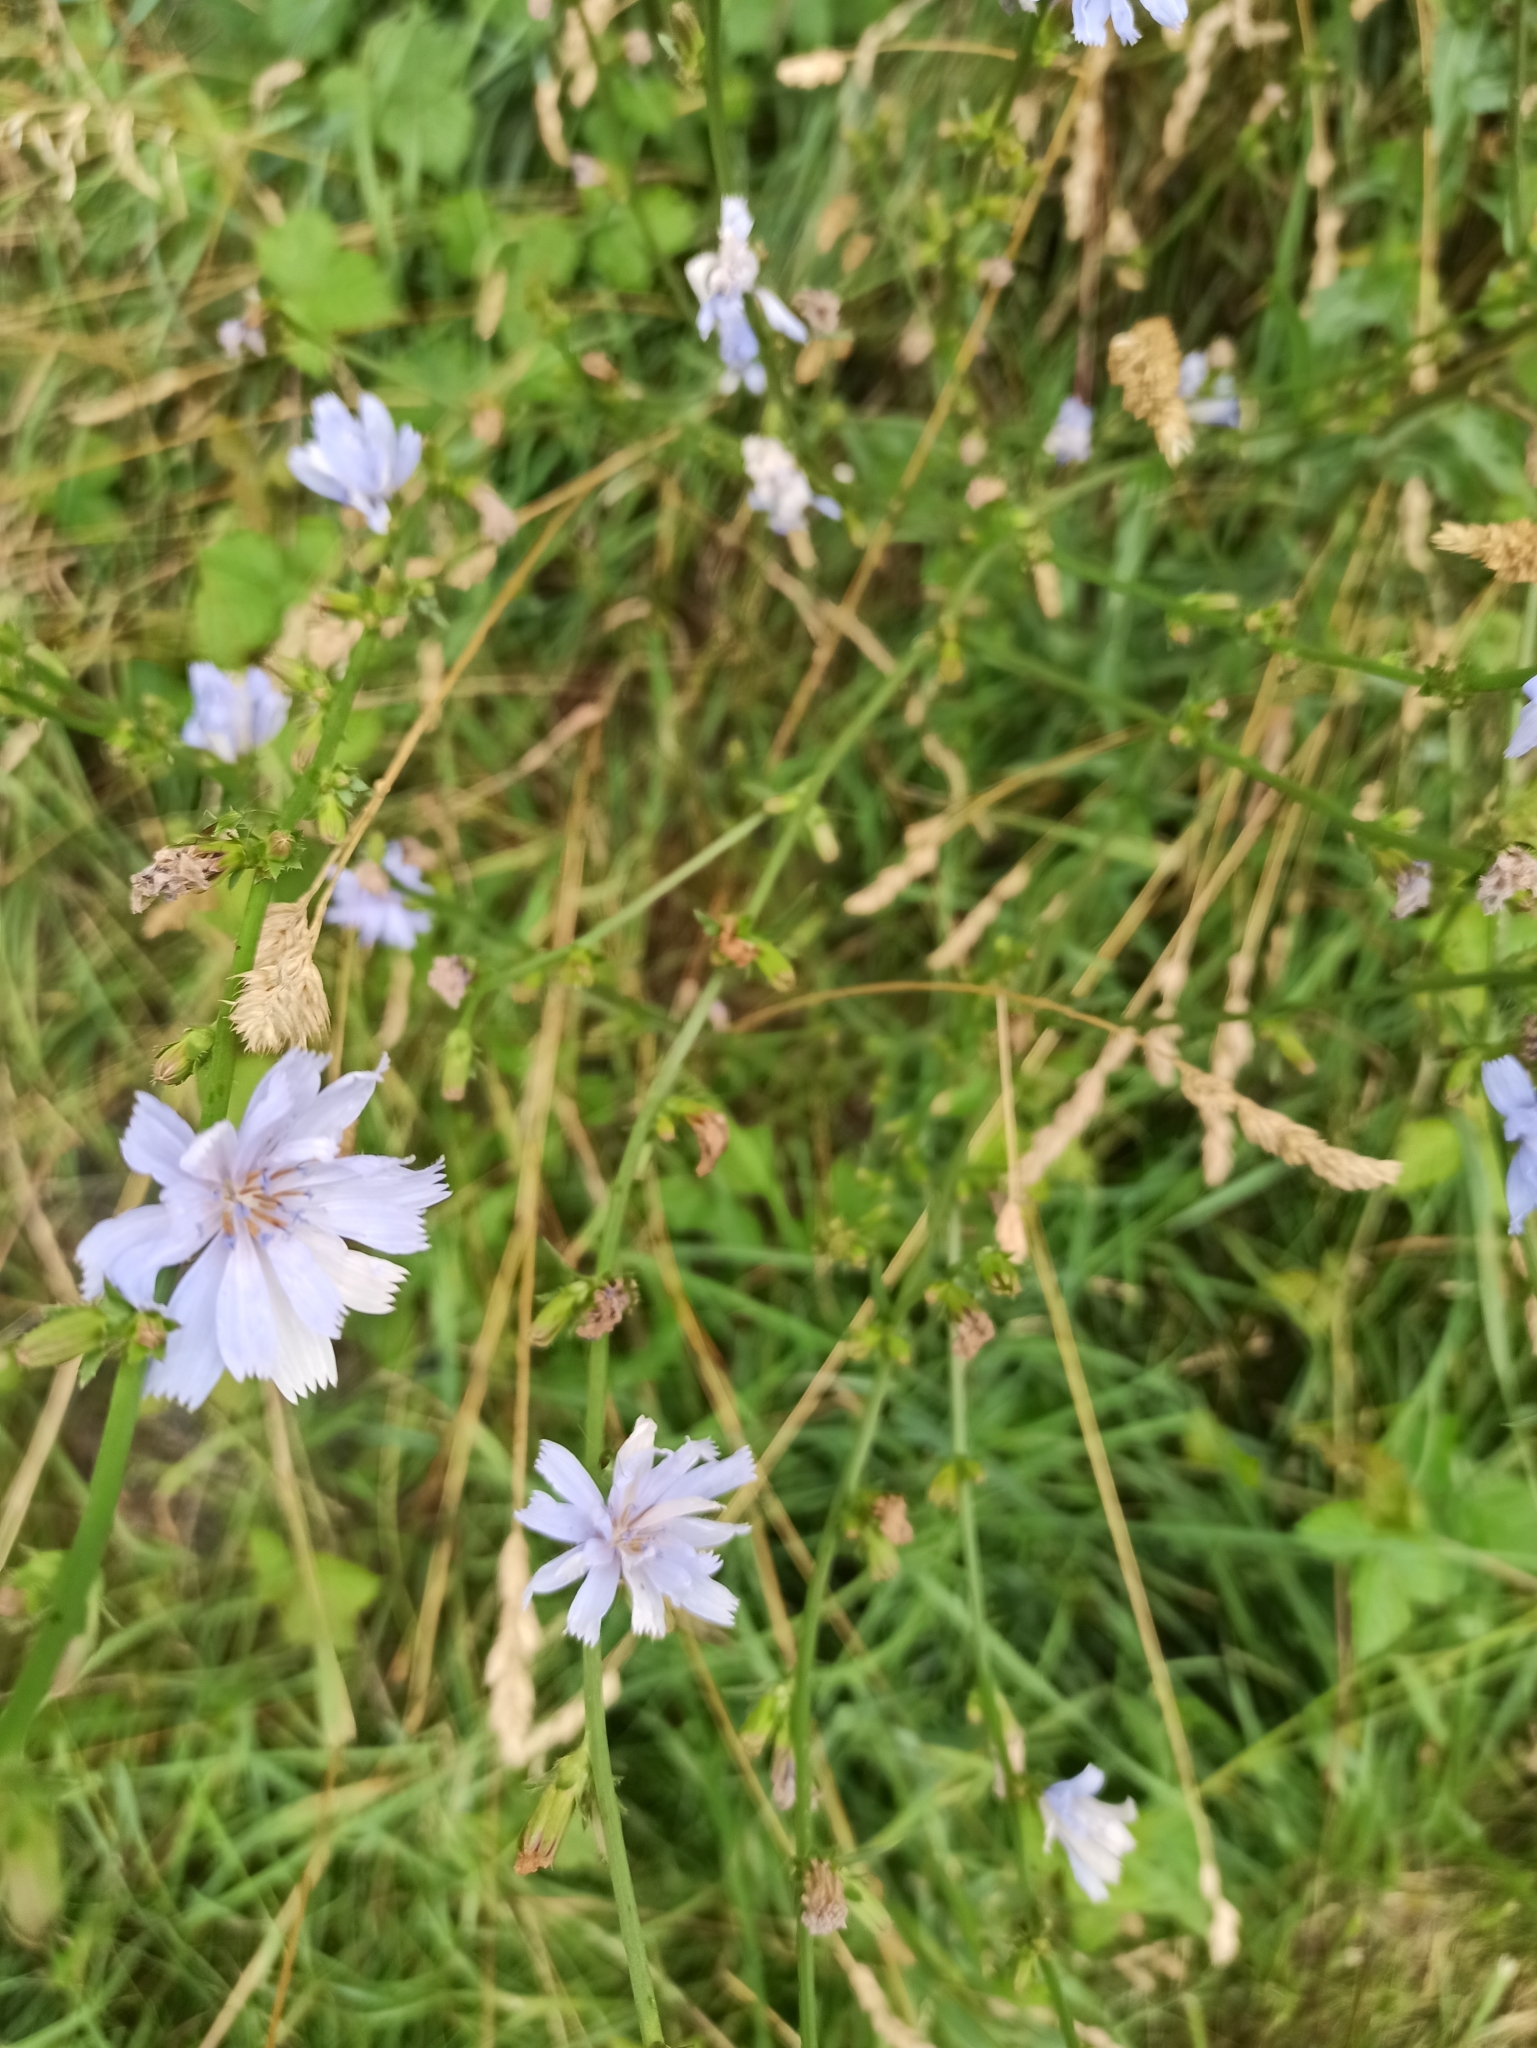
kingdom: Plantae
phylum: Tracheophyta
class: Magnoliopsida
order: Asterales
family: Asteraceae
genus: Cichorium
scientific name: Cichorium intybus
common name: Chicory
